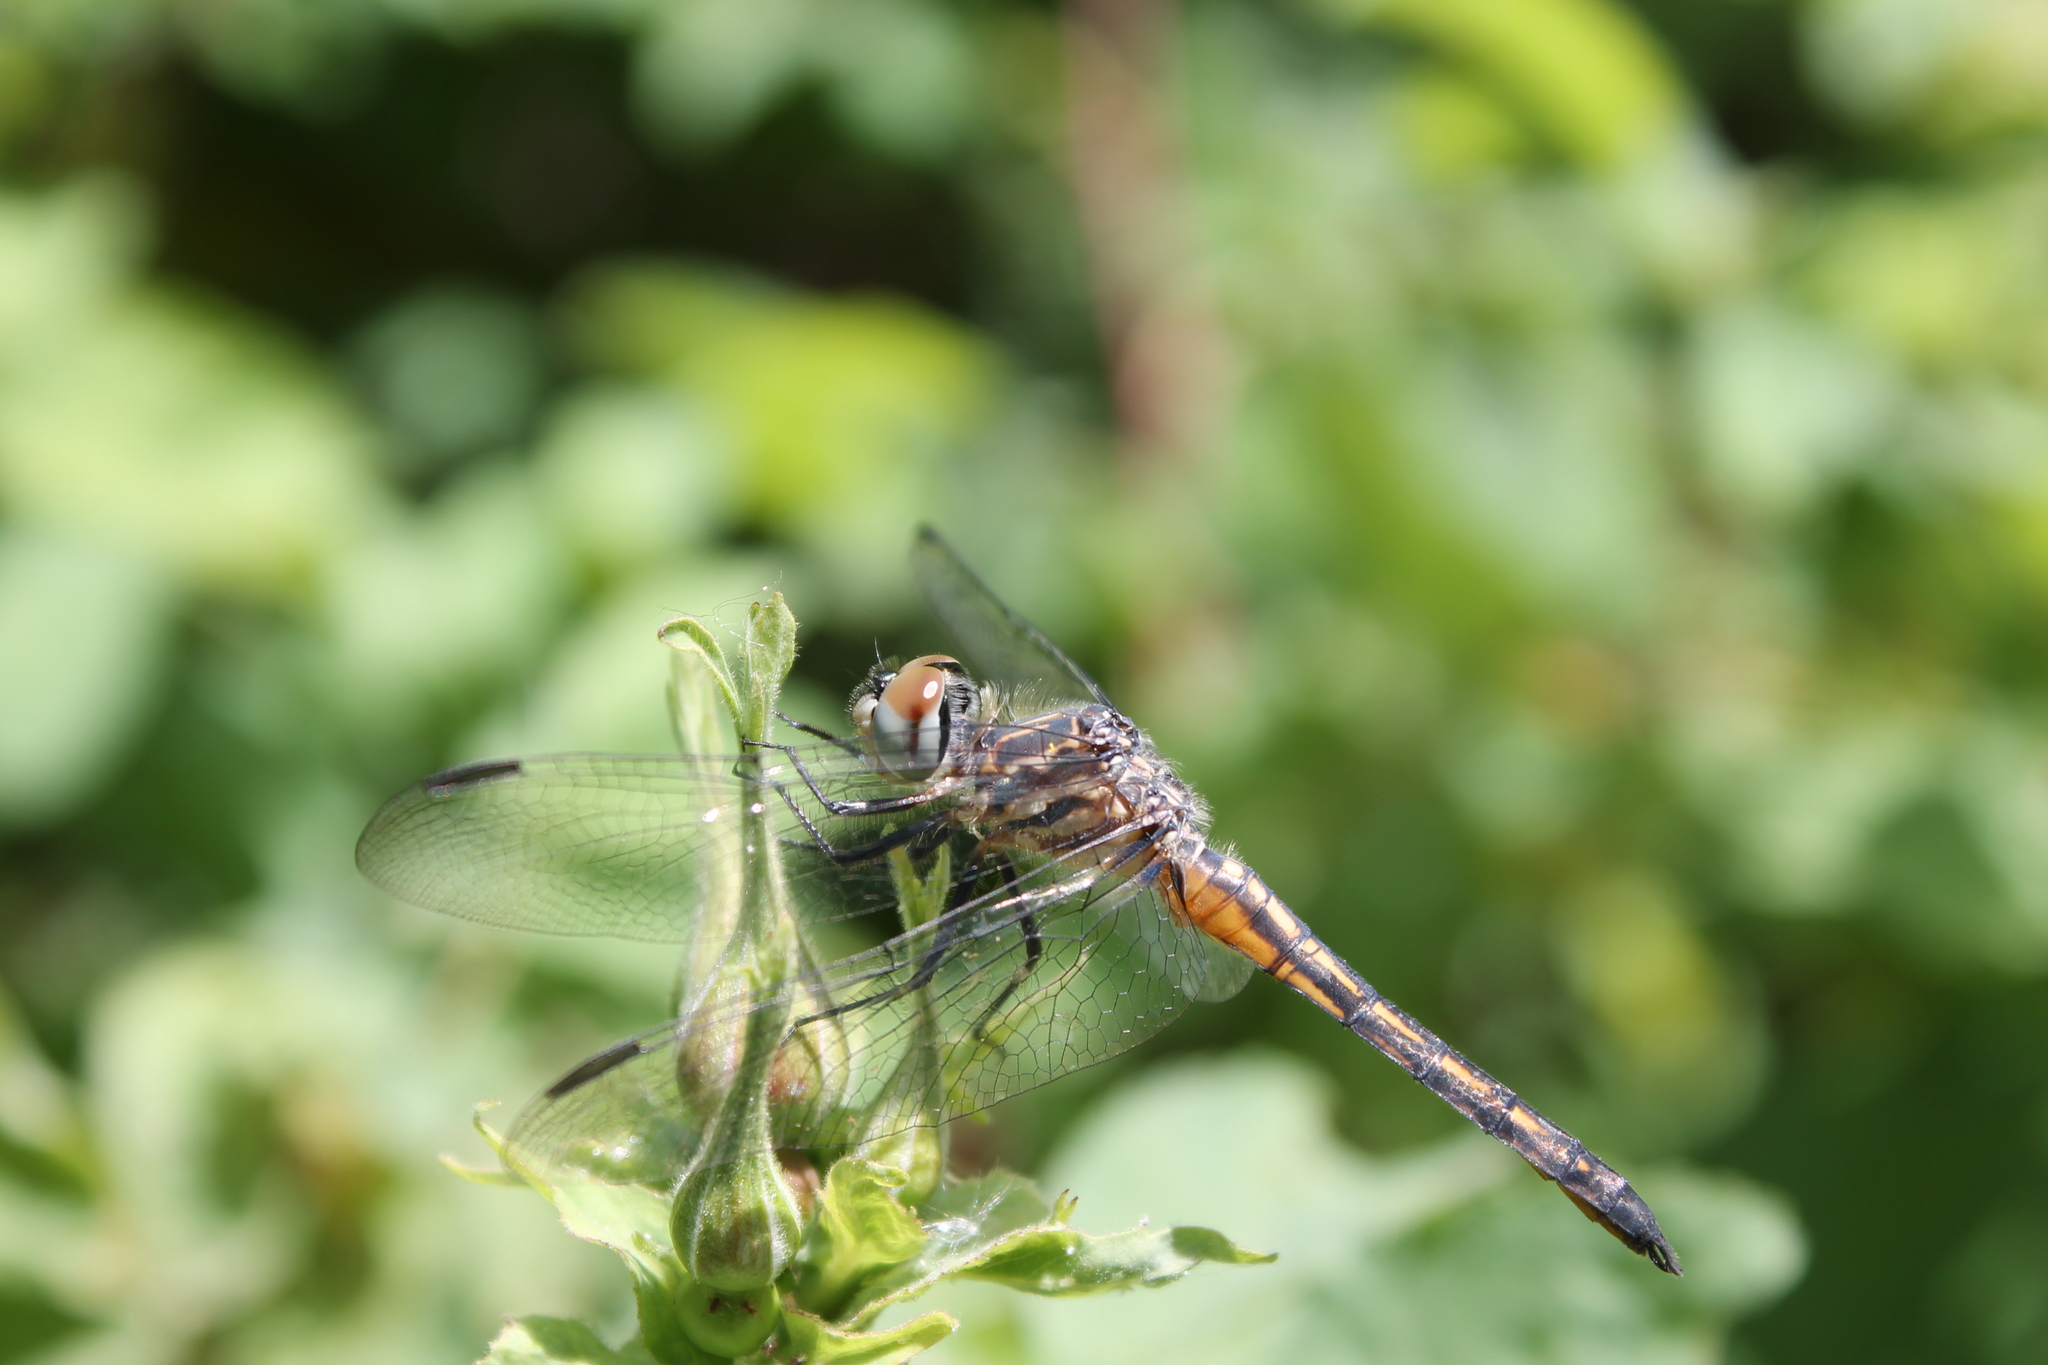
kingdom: Animalia
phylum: Arthropoda
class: Insecta
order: Odonata
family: Libellulidae
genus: Pachydiplax
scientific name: Pachydiplax longipennis
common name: Blue dasher
